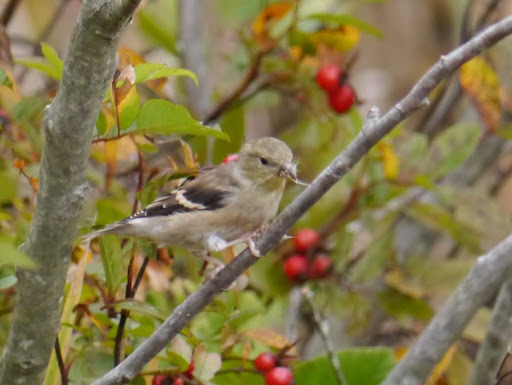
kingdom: Animalia
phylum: Chordata
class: Aves
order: Passeriformes
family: Fringillidae
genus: Spinus
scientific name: Spinus tristis
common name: American goldfinch
